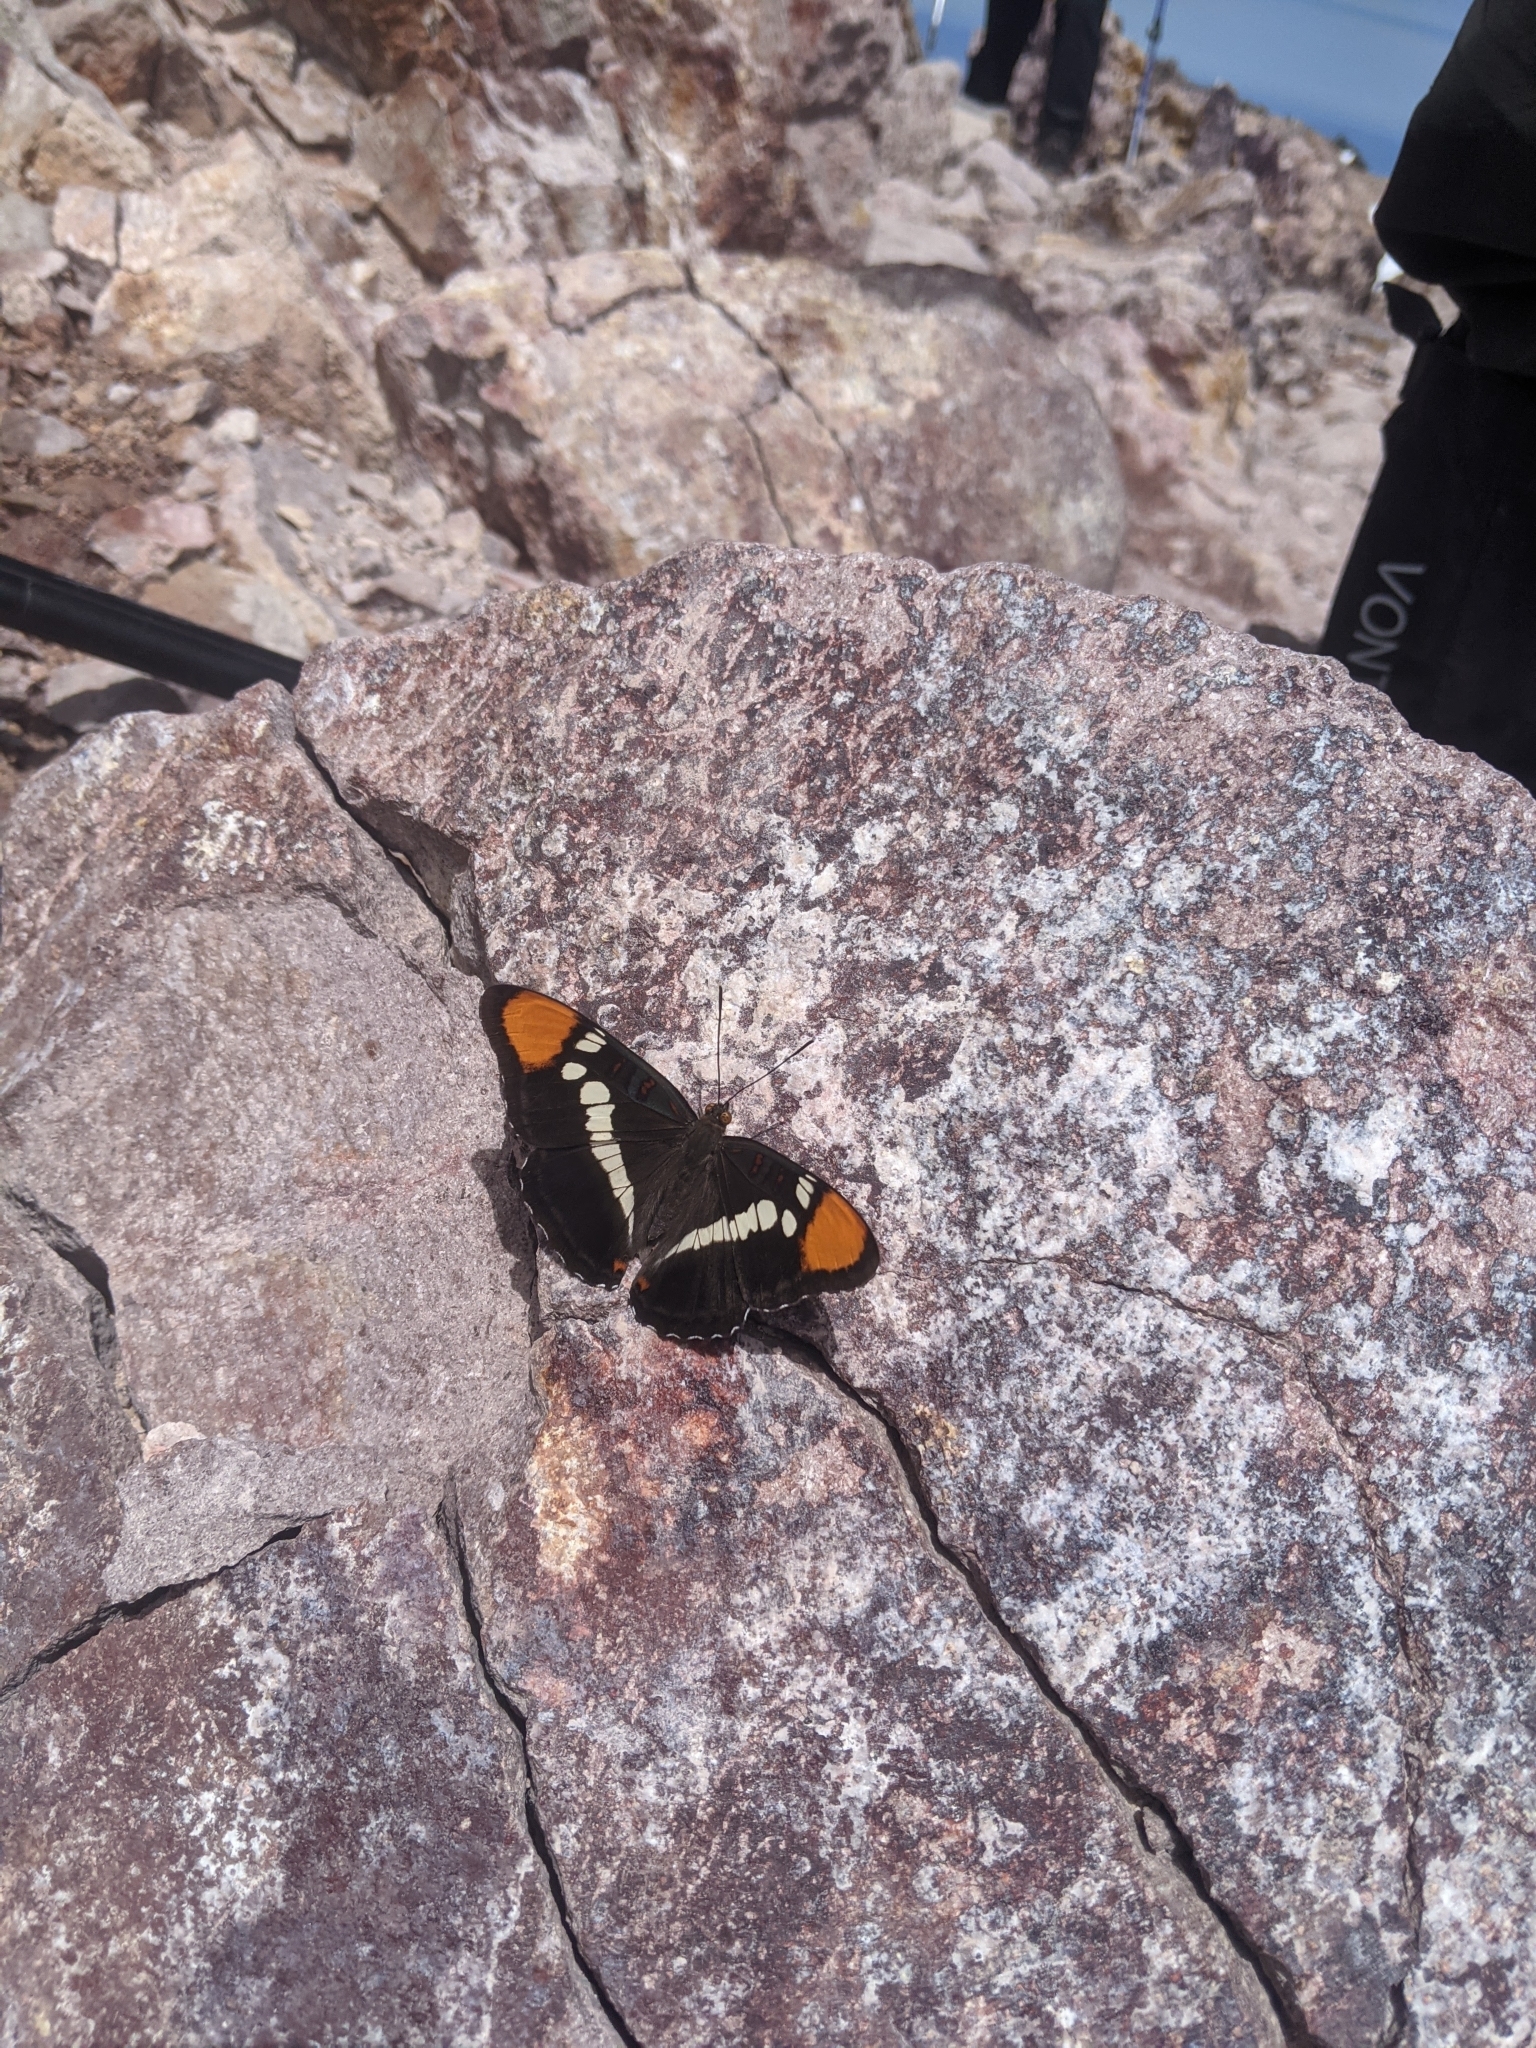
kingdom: Animalia
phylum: Arthropoda
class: Insecta
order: Lepidoptera
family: Nymphalidae
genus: Limenitis
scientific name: Limenitis bredowii
